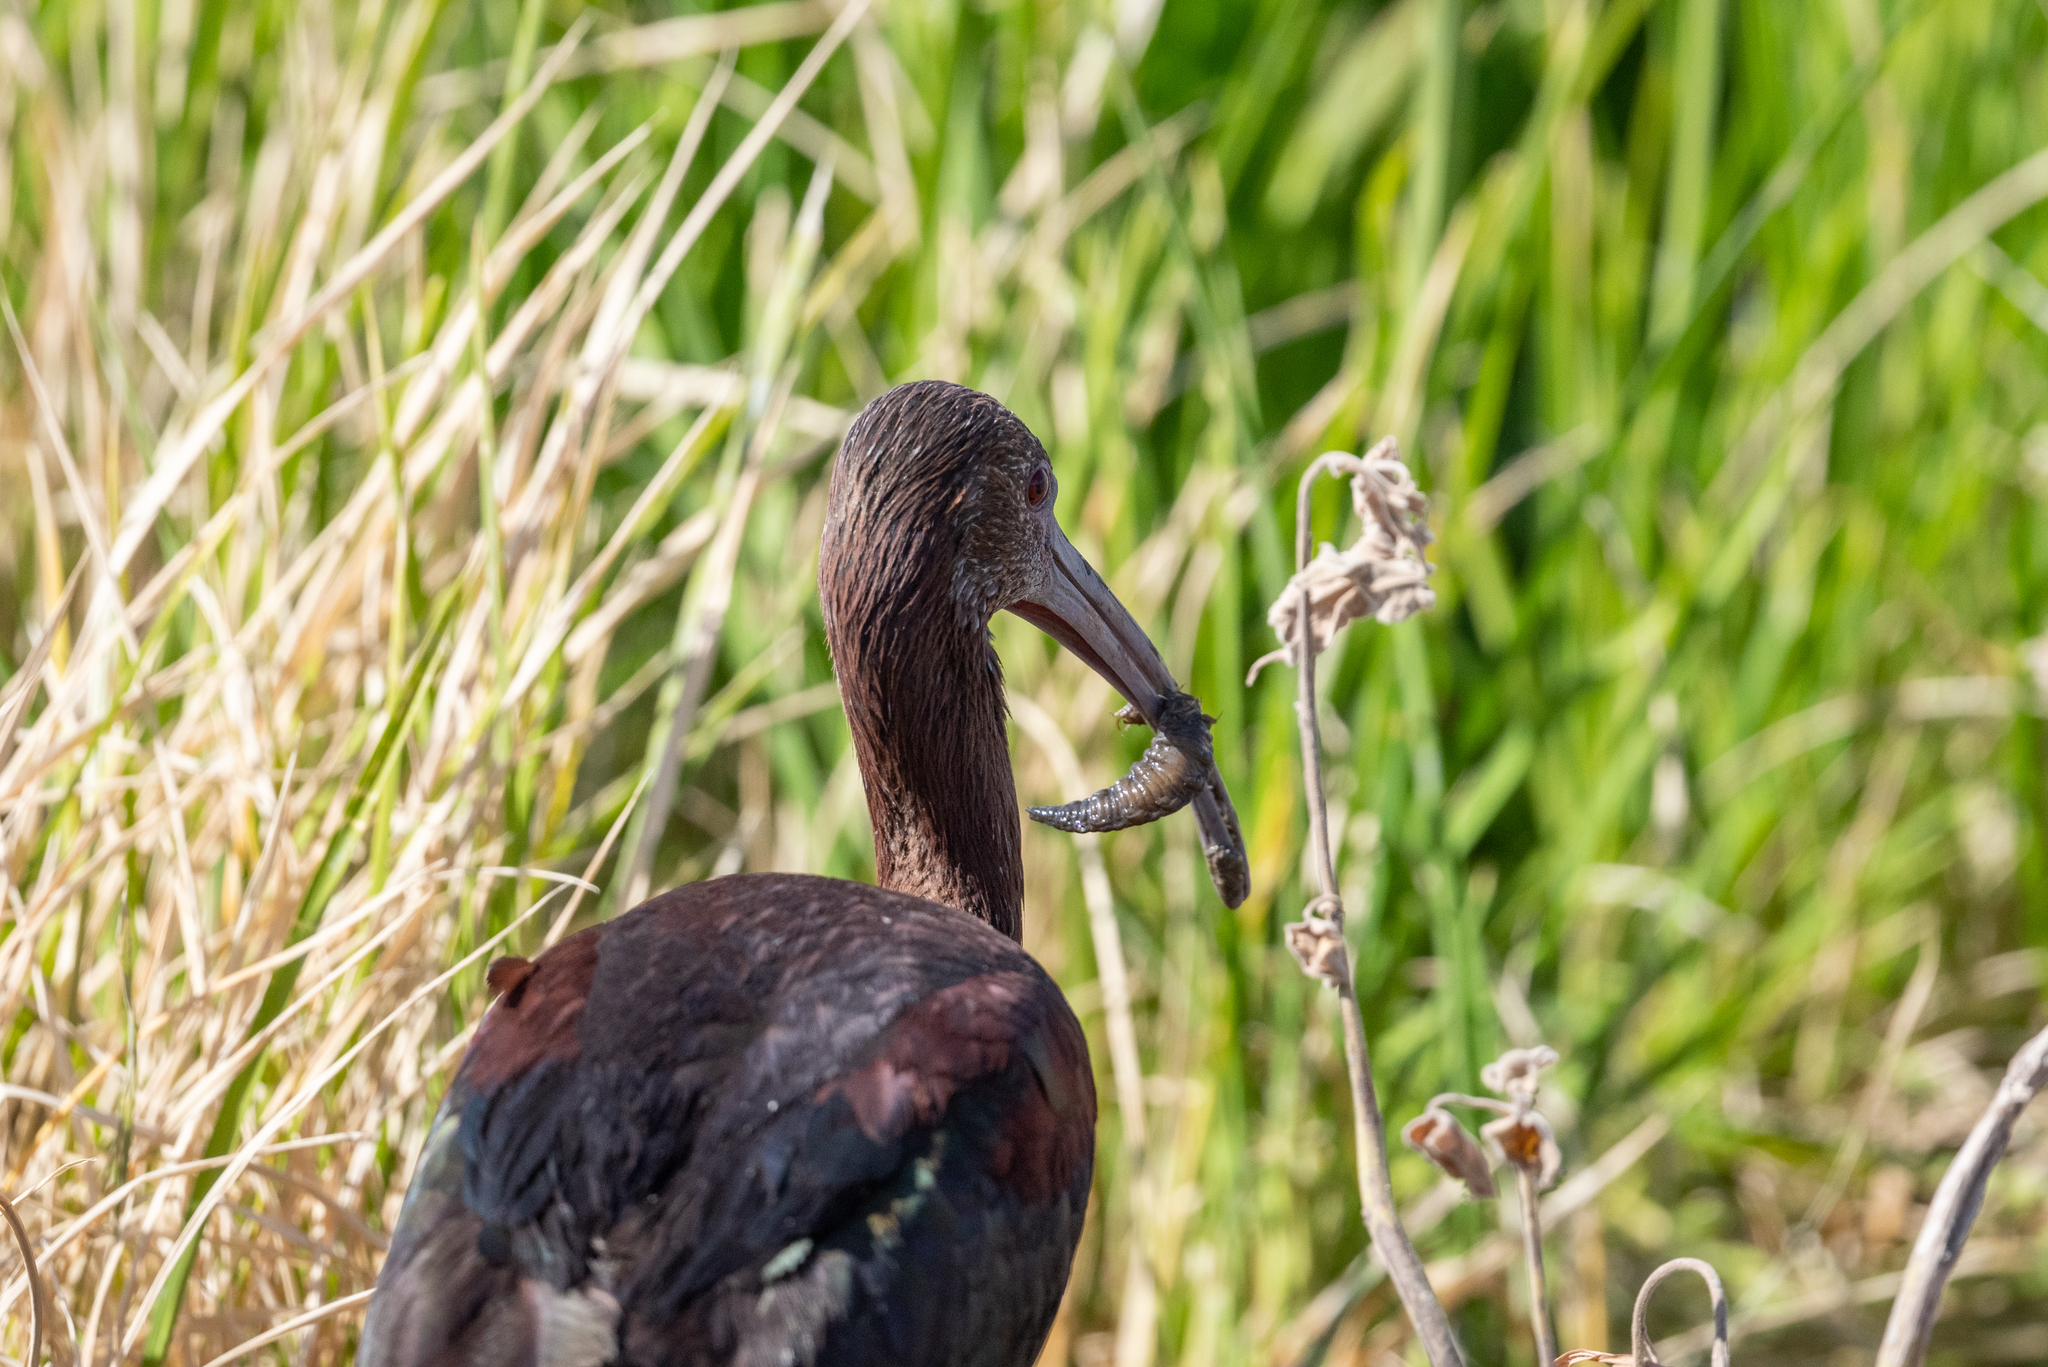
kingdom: Animalia
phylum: Chordata
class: Aves
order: Pelecaniformes
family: Threskiornithidae
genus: Plegadis
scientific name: Plegadis chihi
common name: White-faced ibis
